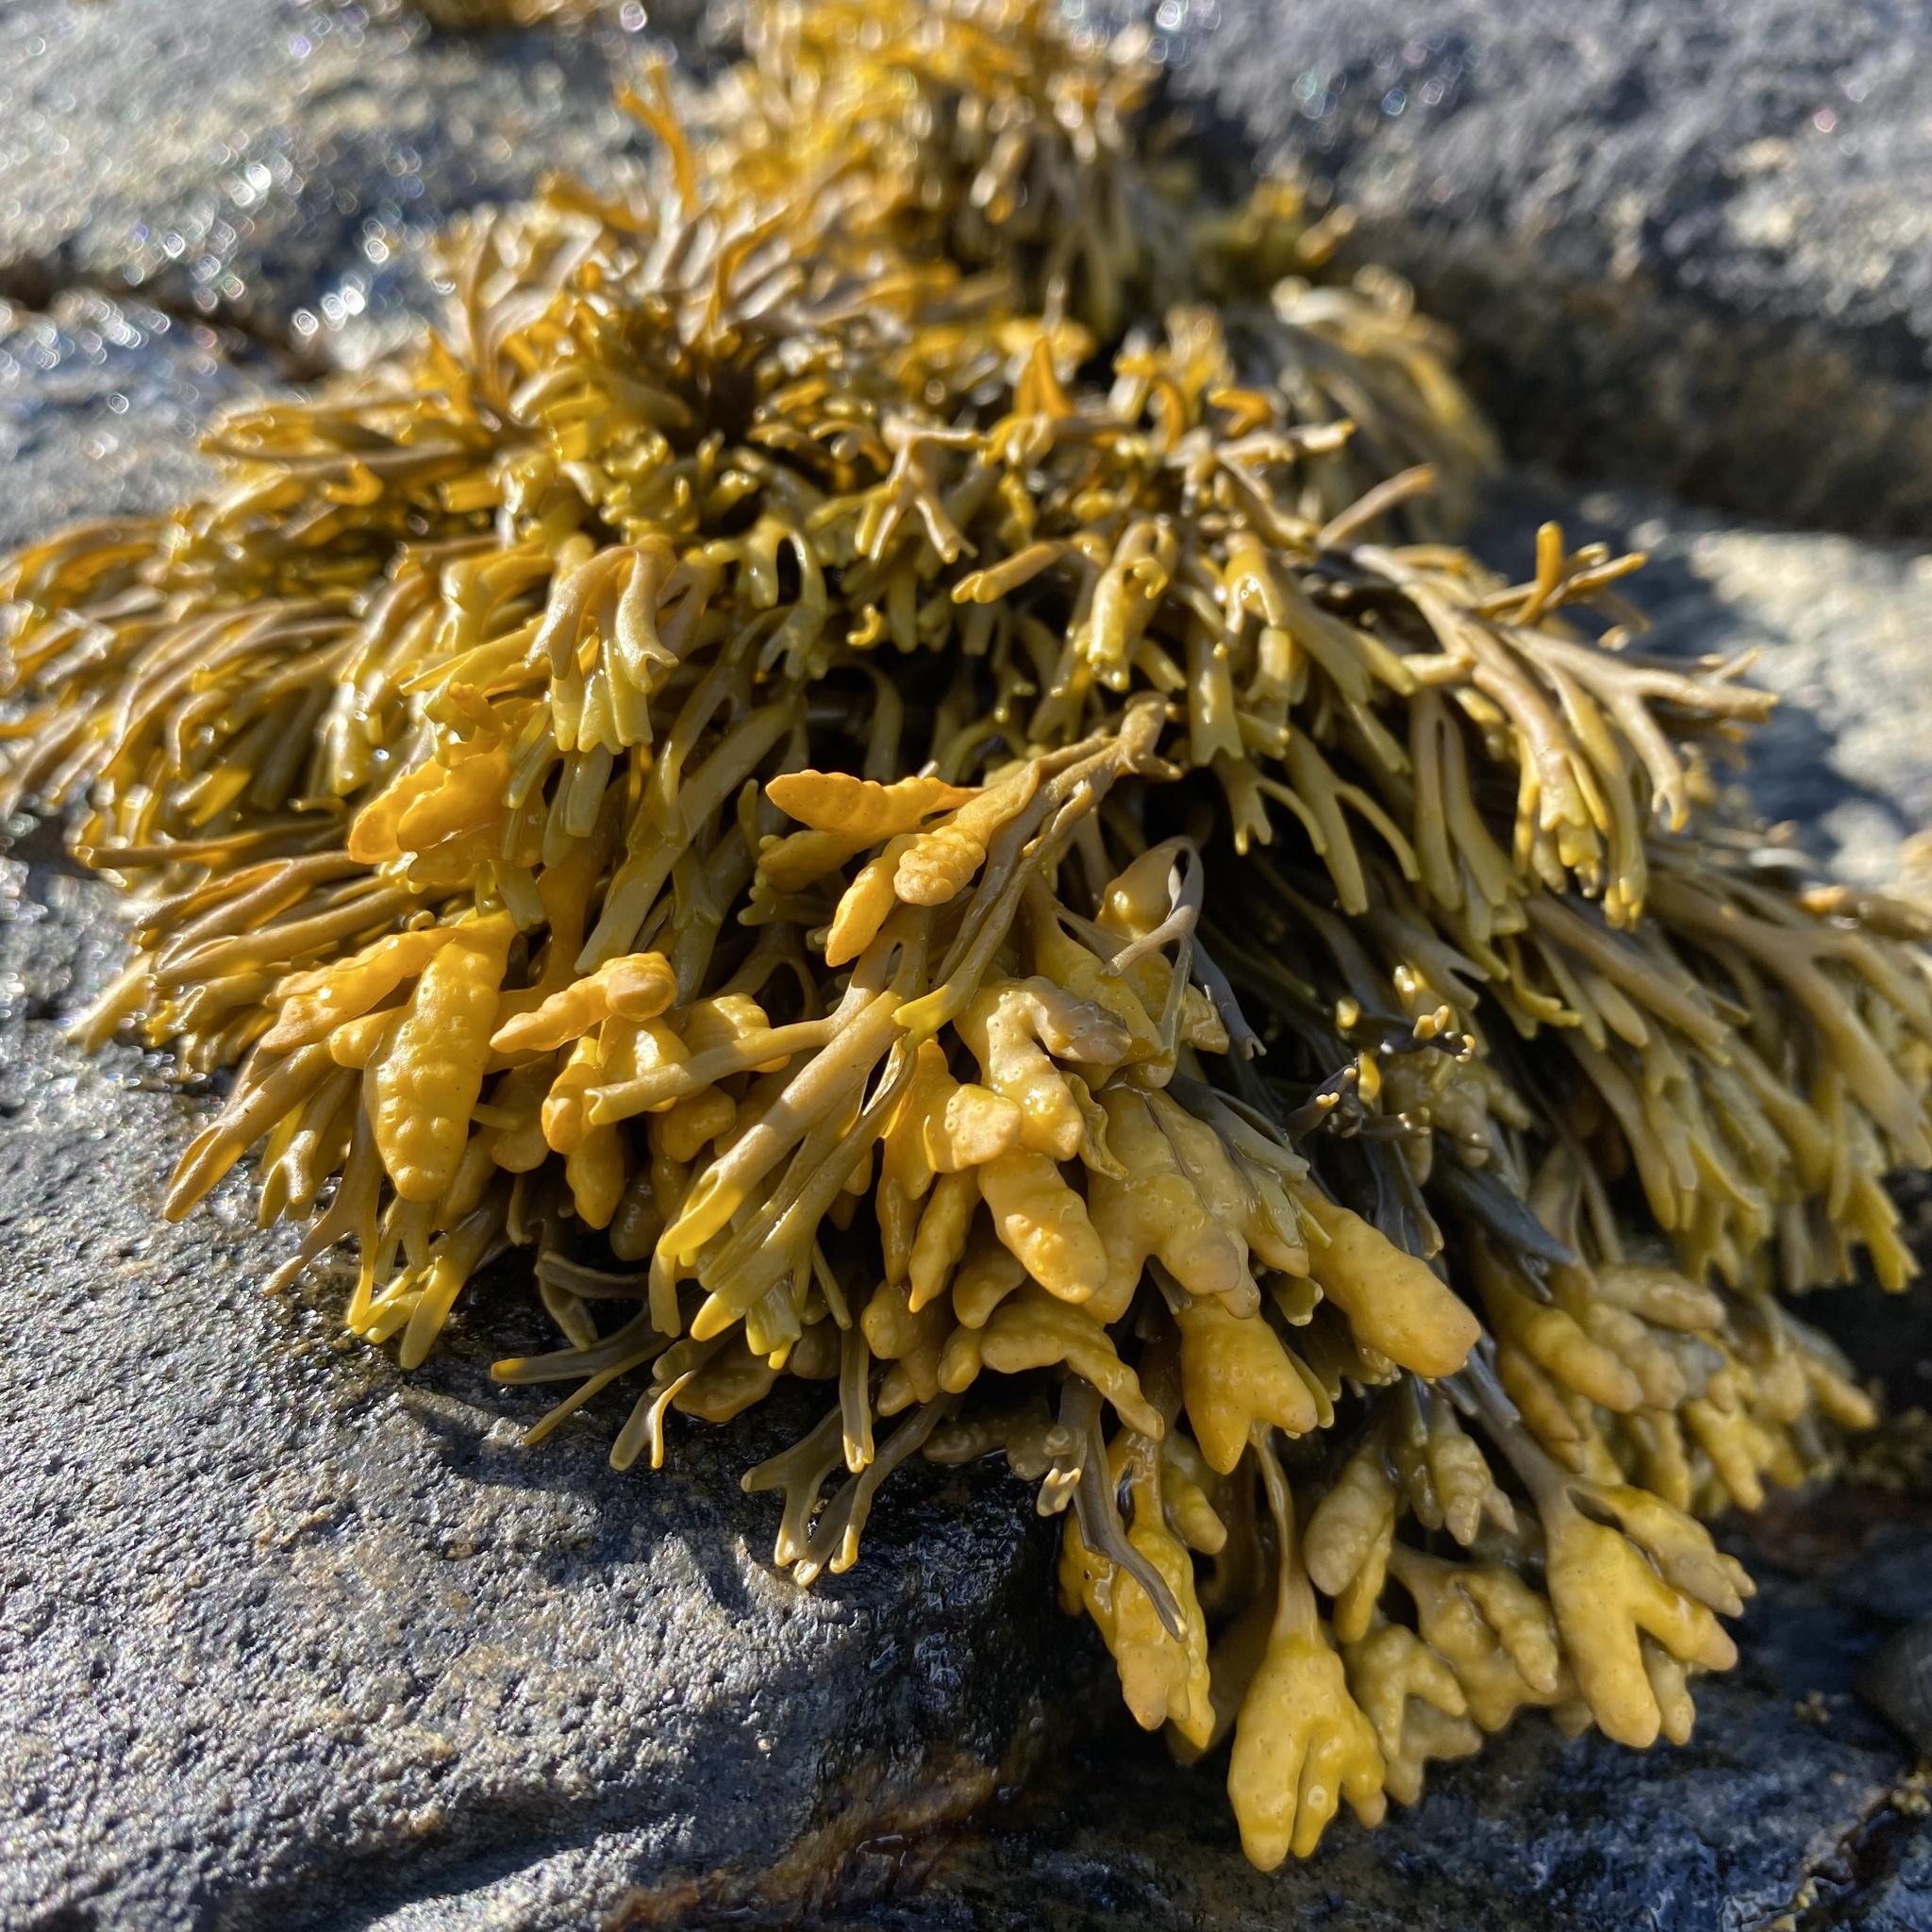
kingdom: Chromista
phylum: Ochrophyta
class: Phaeophyceae
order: Fucales
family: Fucaceae
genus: Pelvetia
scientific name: Pelvetia canaliculata
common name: Channelled wrack
